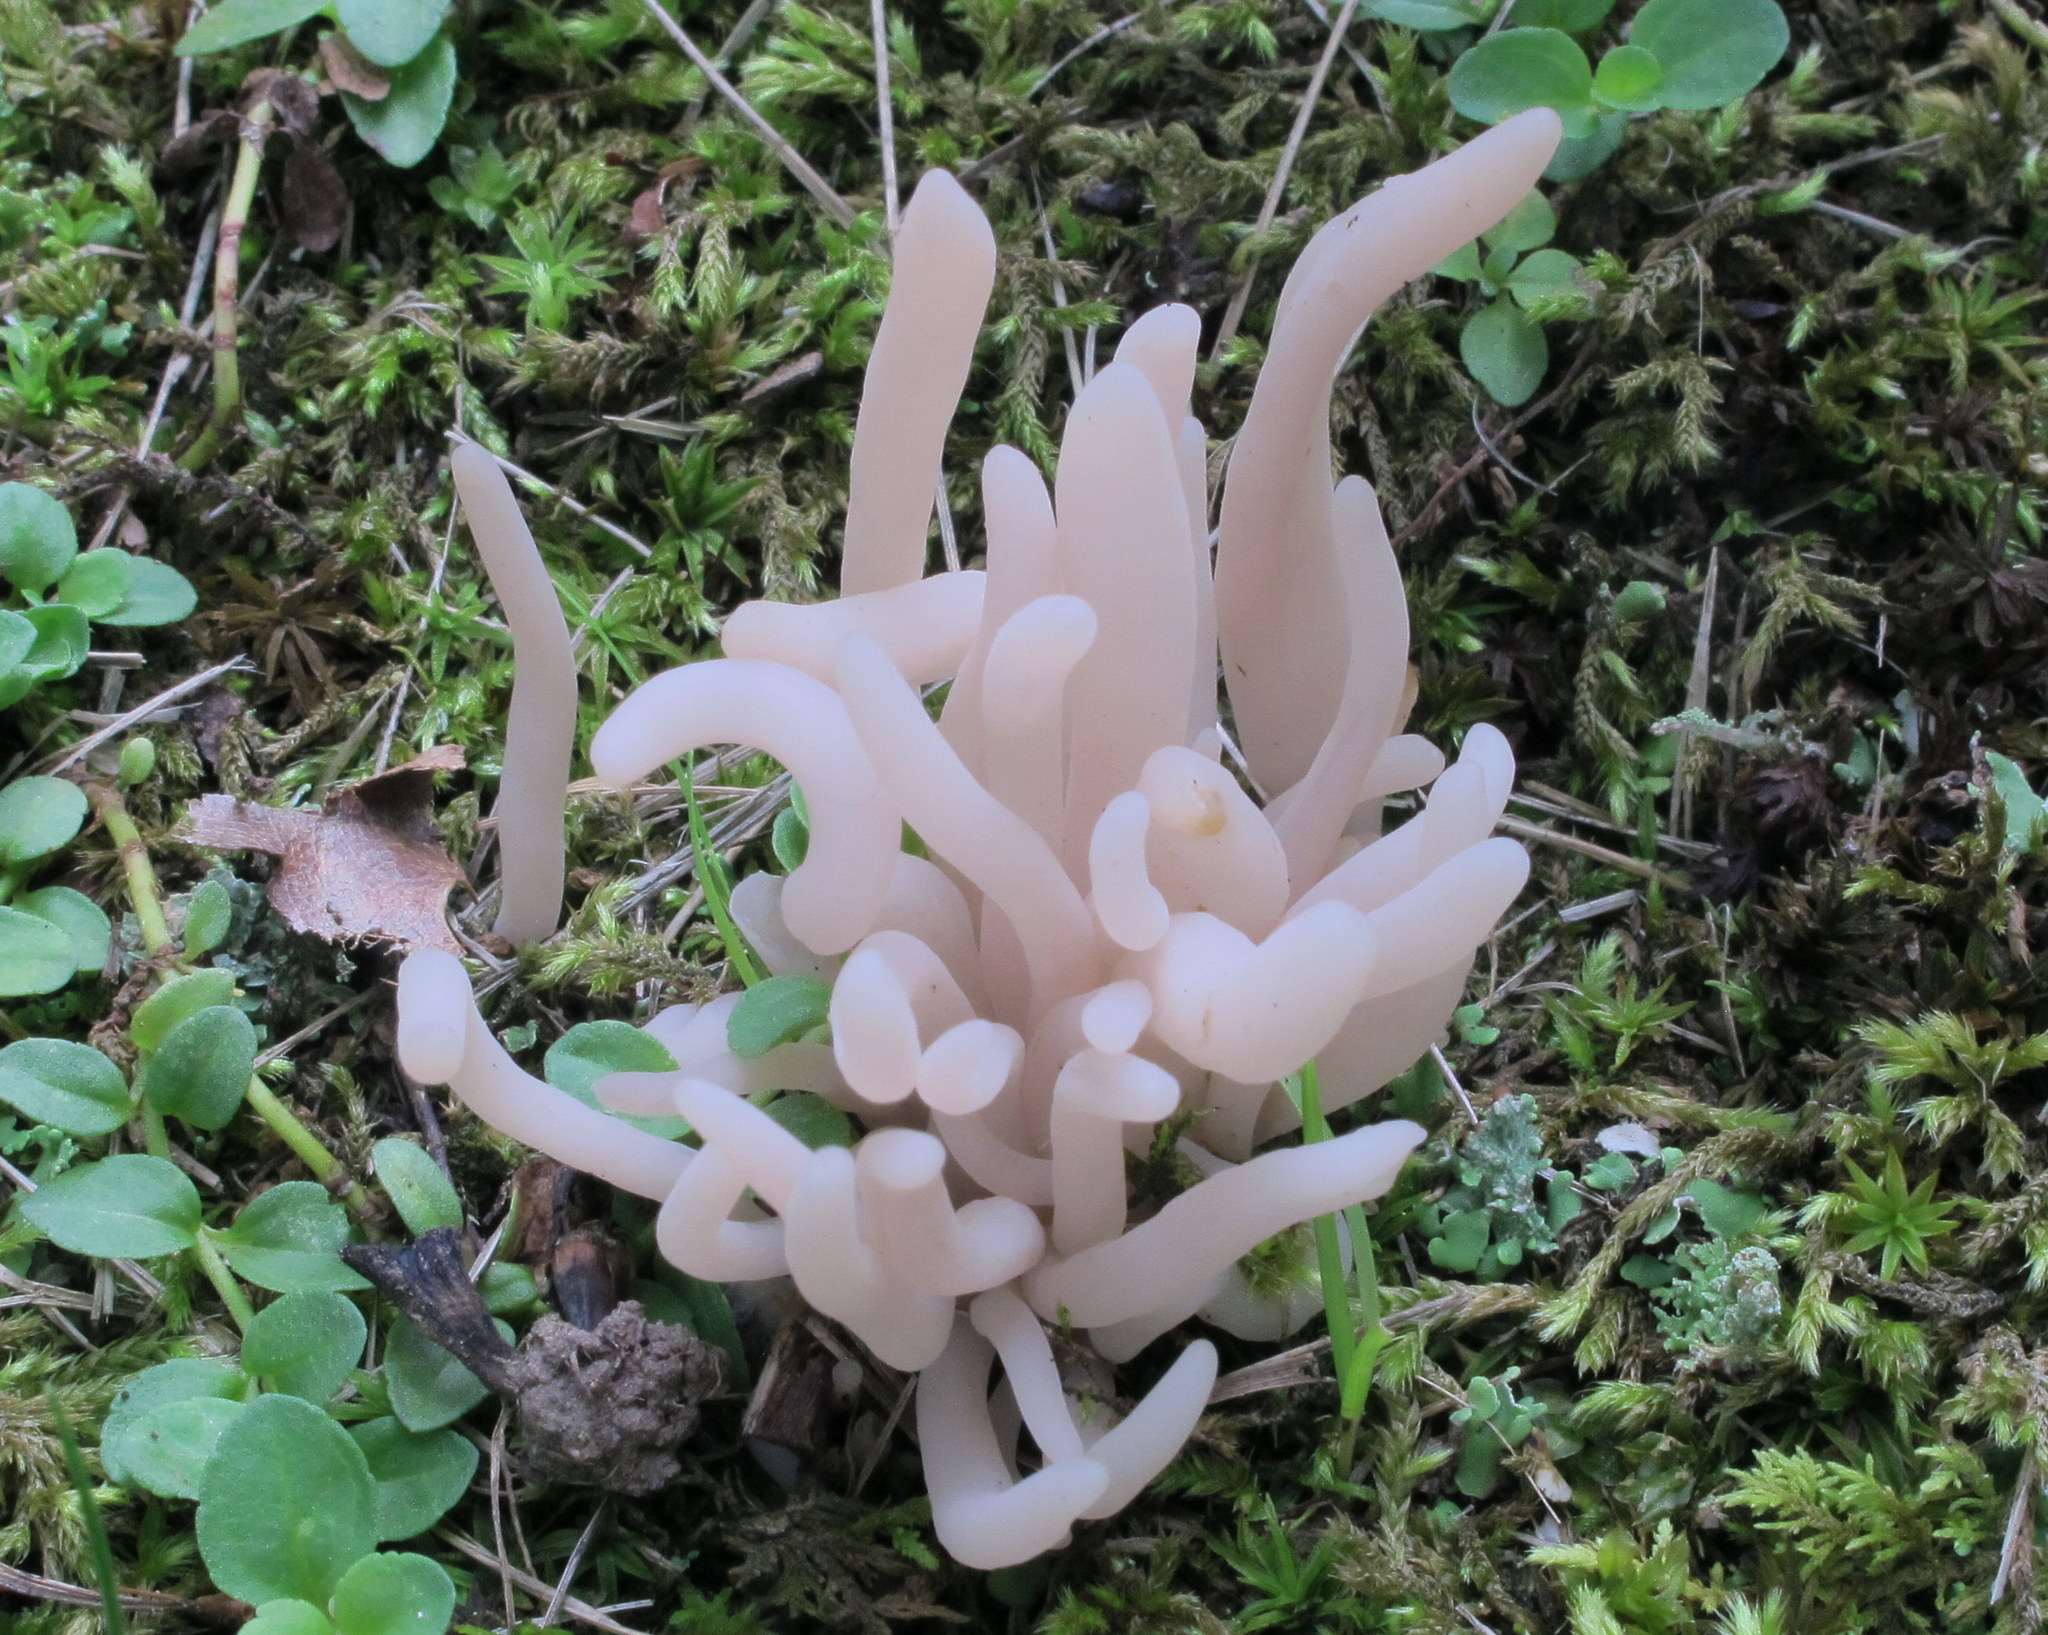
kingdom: Fungi
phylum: Basidiomycota
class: Agaricomycetes
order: Agaricales
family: Clavariaceae
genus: Clavaria
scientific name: Clavaria fumosa
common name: Smoky spindles
